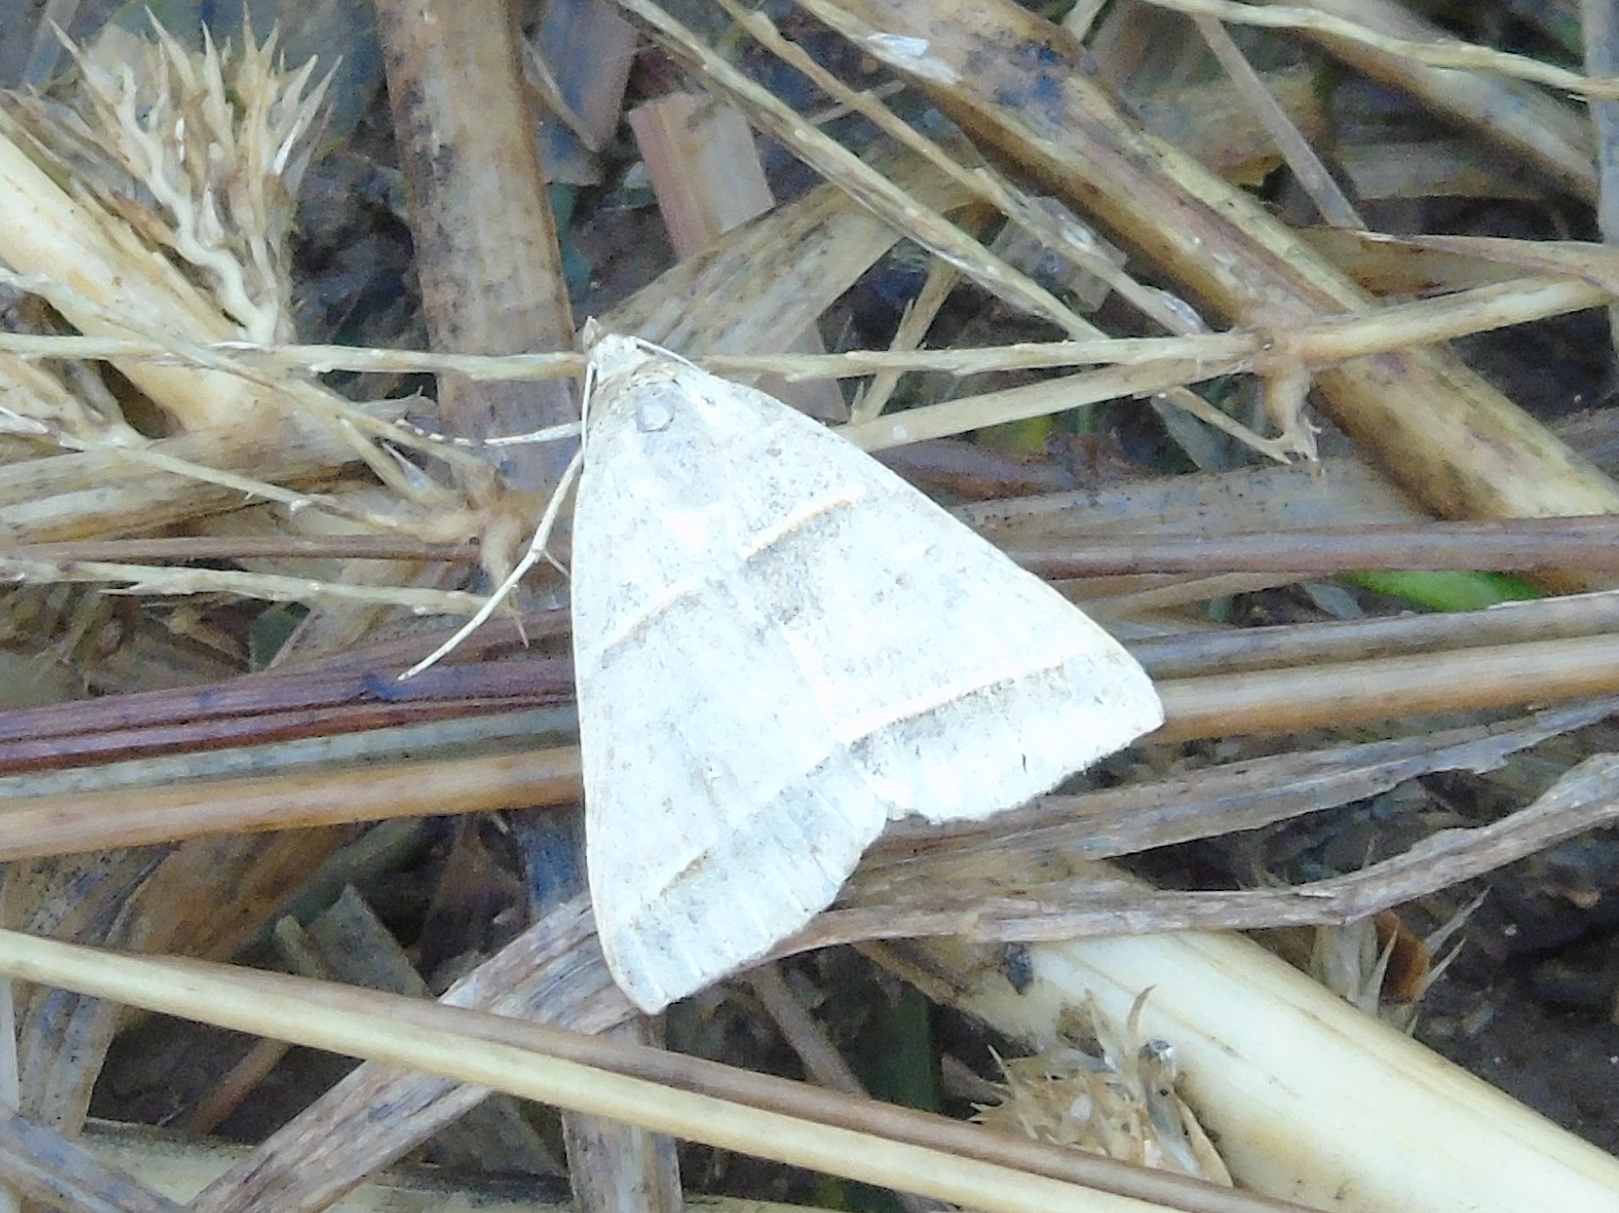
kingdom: Animalia
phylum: Arthropoda
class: Insecta
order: Lepidoptera
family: Erebidae
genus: Ptichodis
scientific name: Ptichodis vinculum
